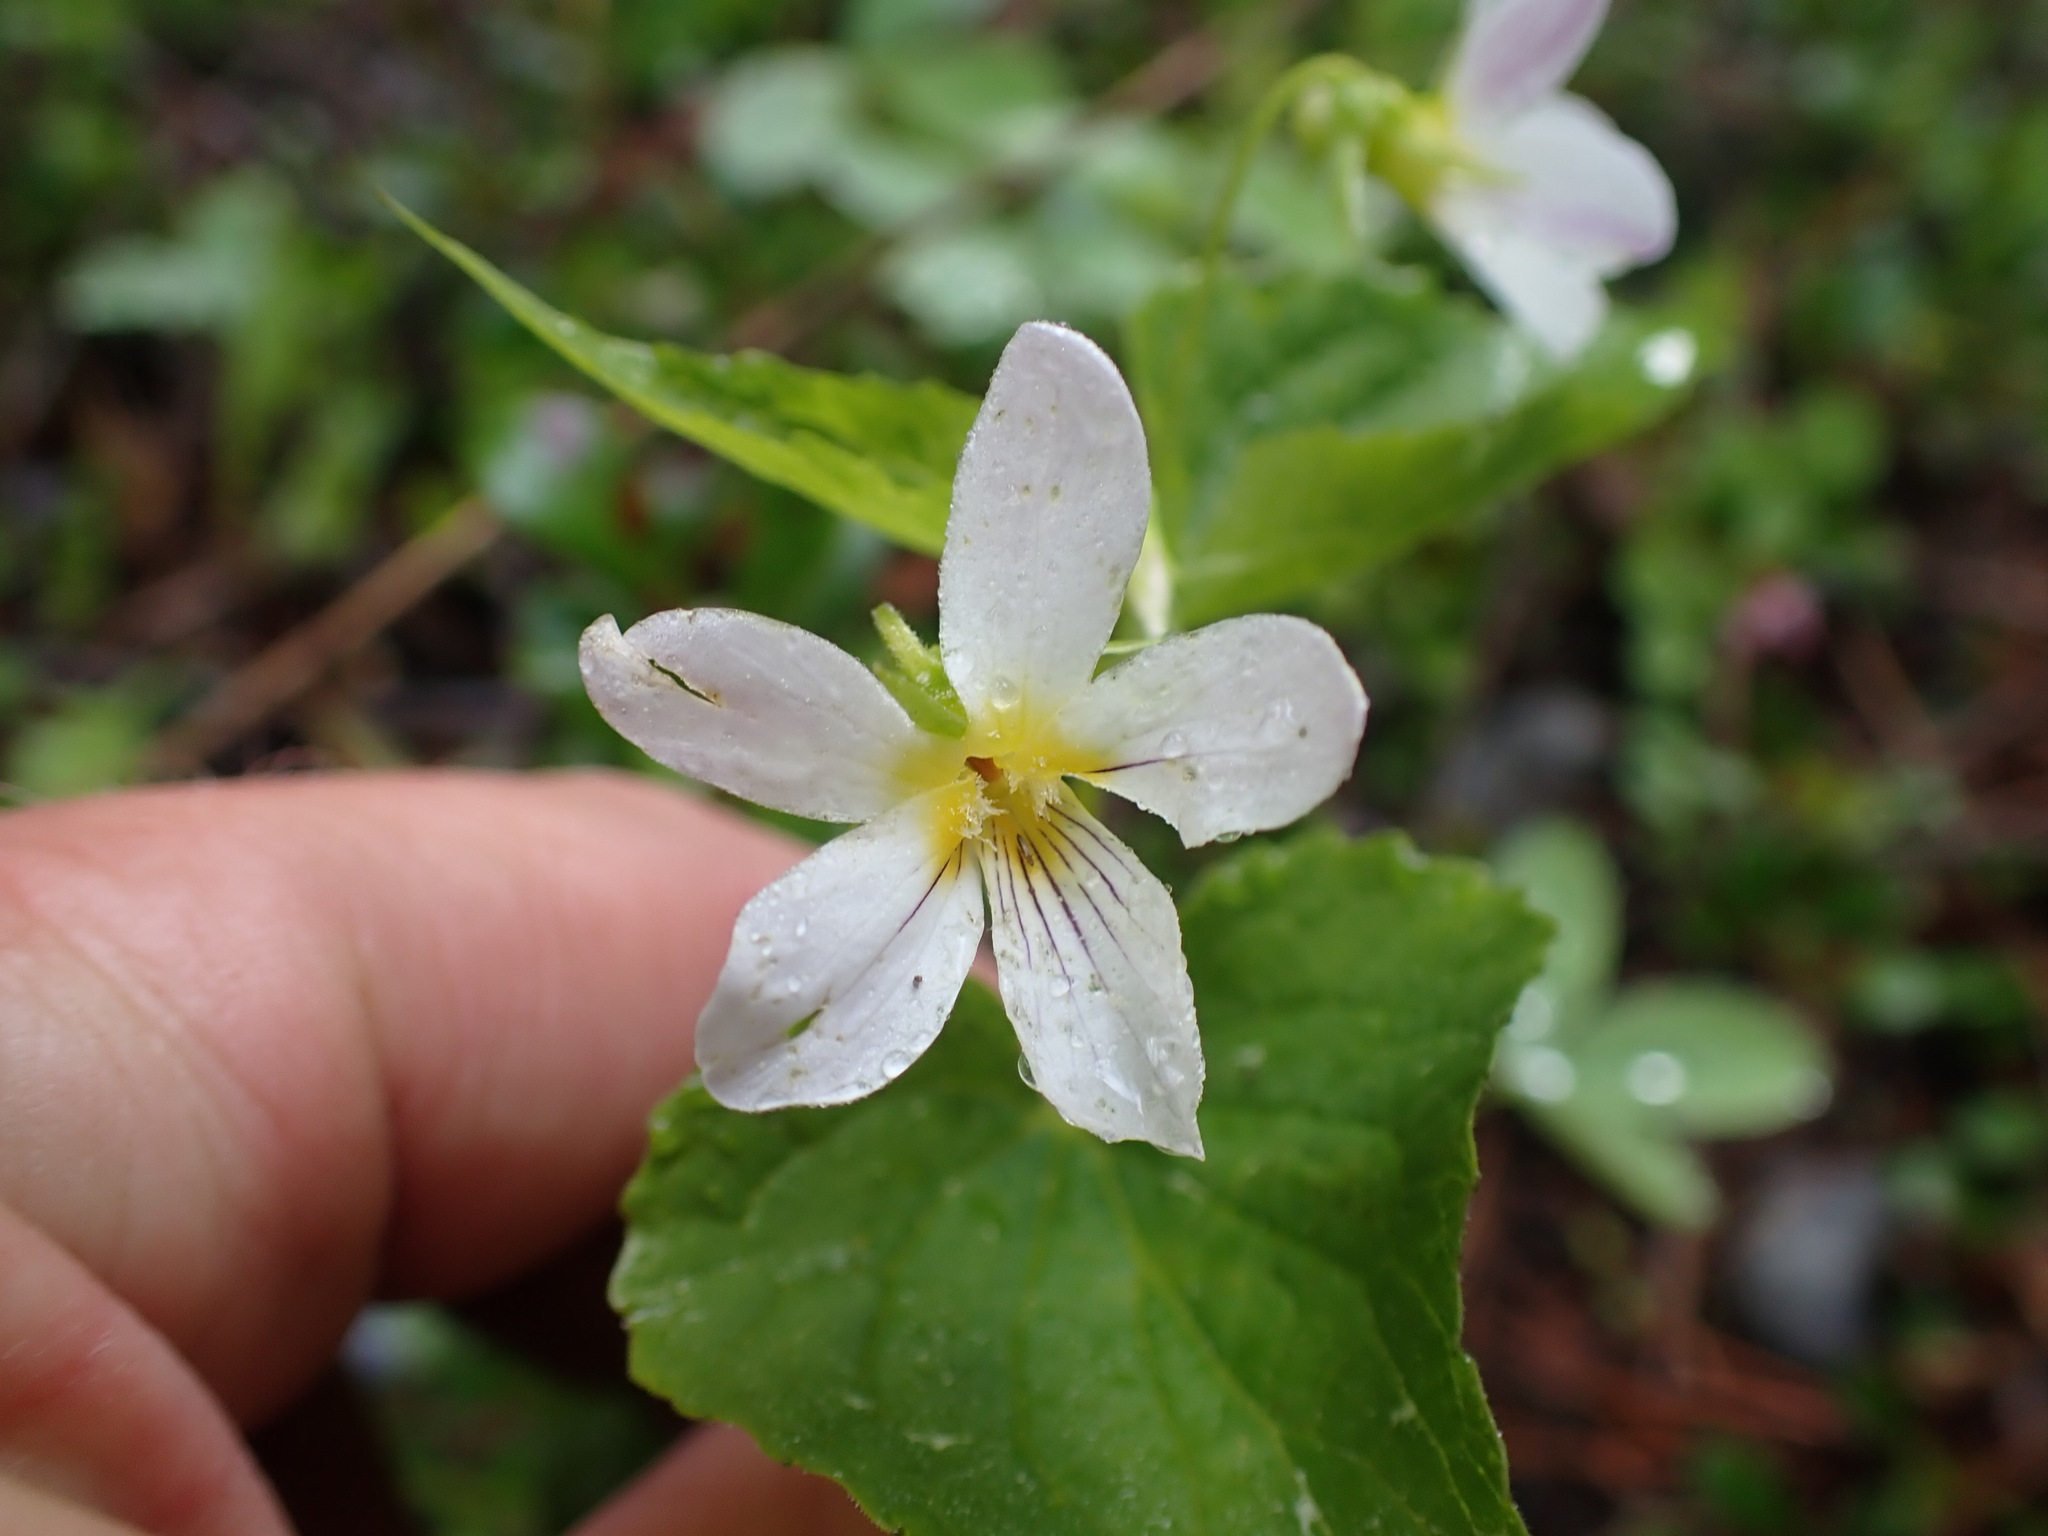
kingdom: Plantae
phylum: Tracheophyta
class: Magnoliopsida
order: Malpighiales
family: Violaceae
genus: Viola
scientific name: Viola canadensis
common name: Canada violet
